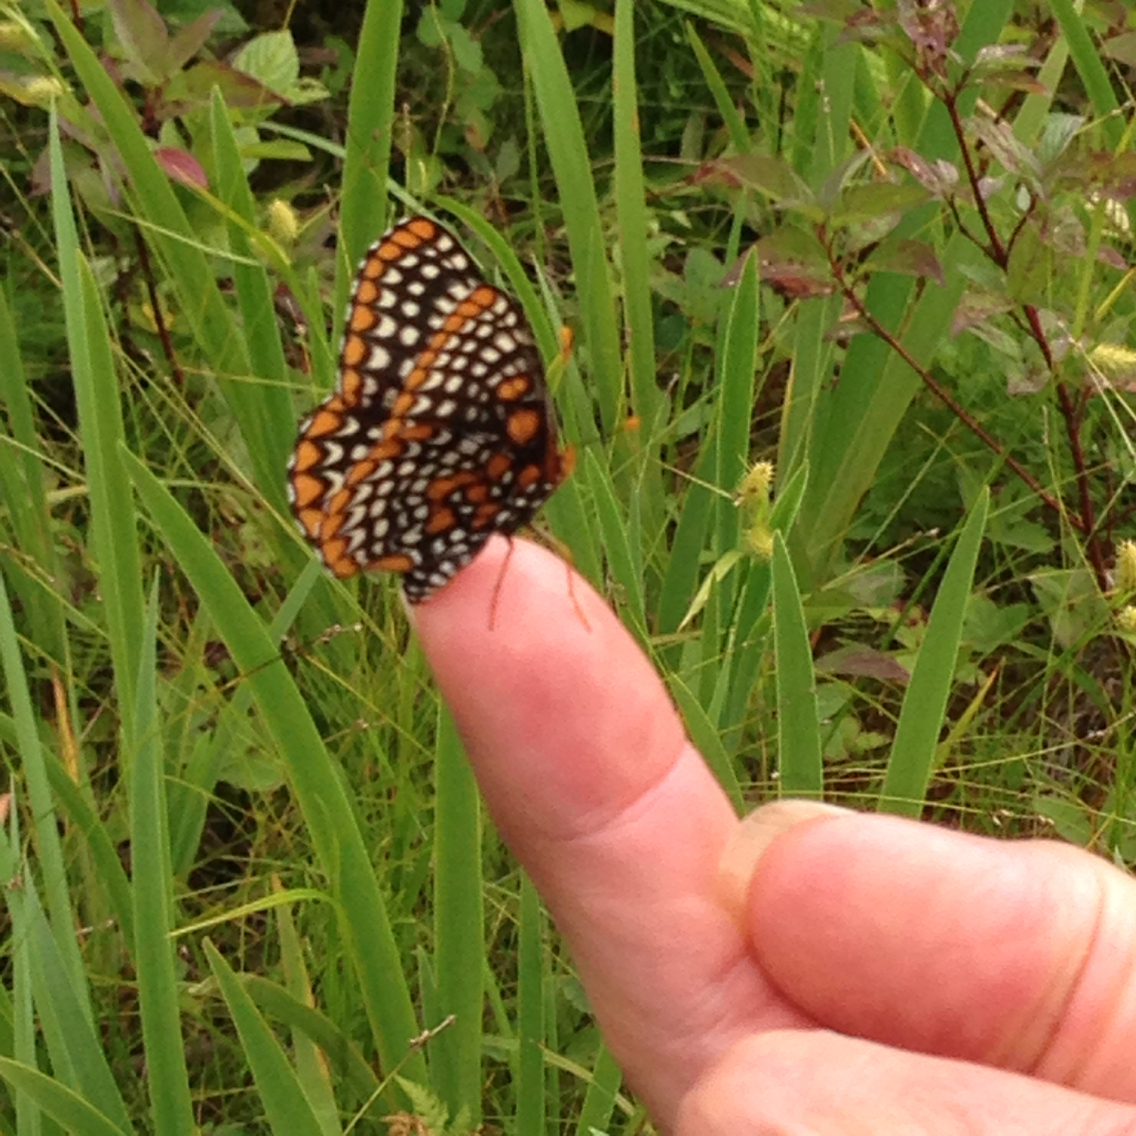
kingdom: Animalia
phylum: Arthropoda
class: Insecta
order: Lepidoptera
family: Nymphalidae
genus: Euphydryas
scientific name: Euphydryas phaeton
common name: Baltimore checkerspot
